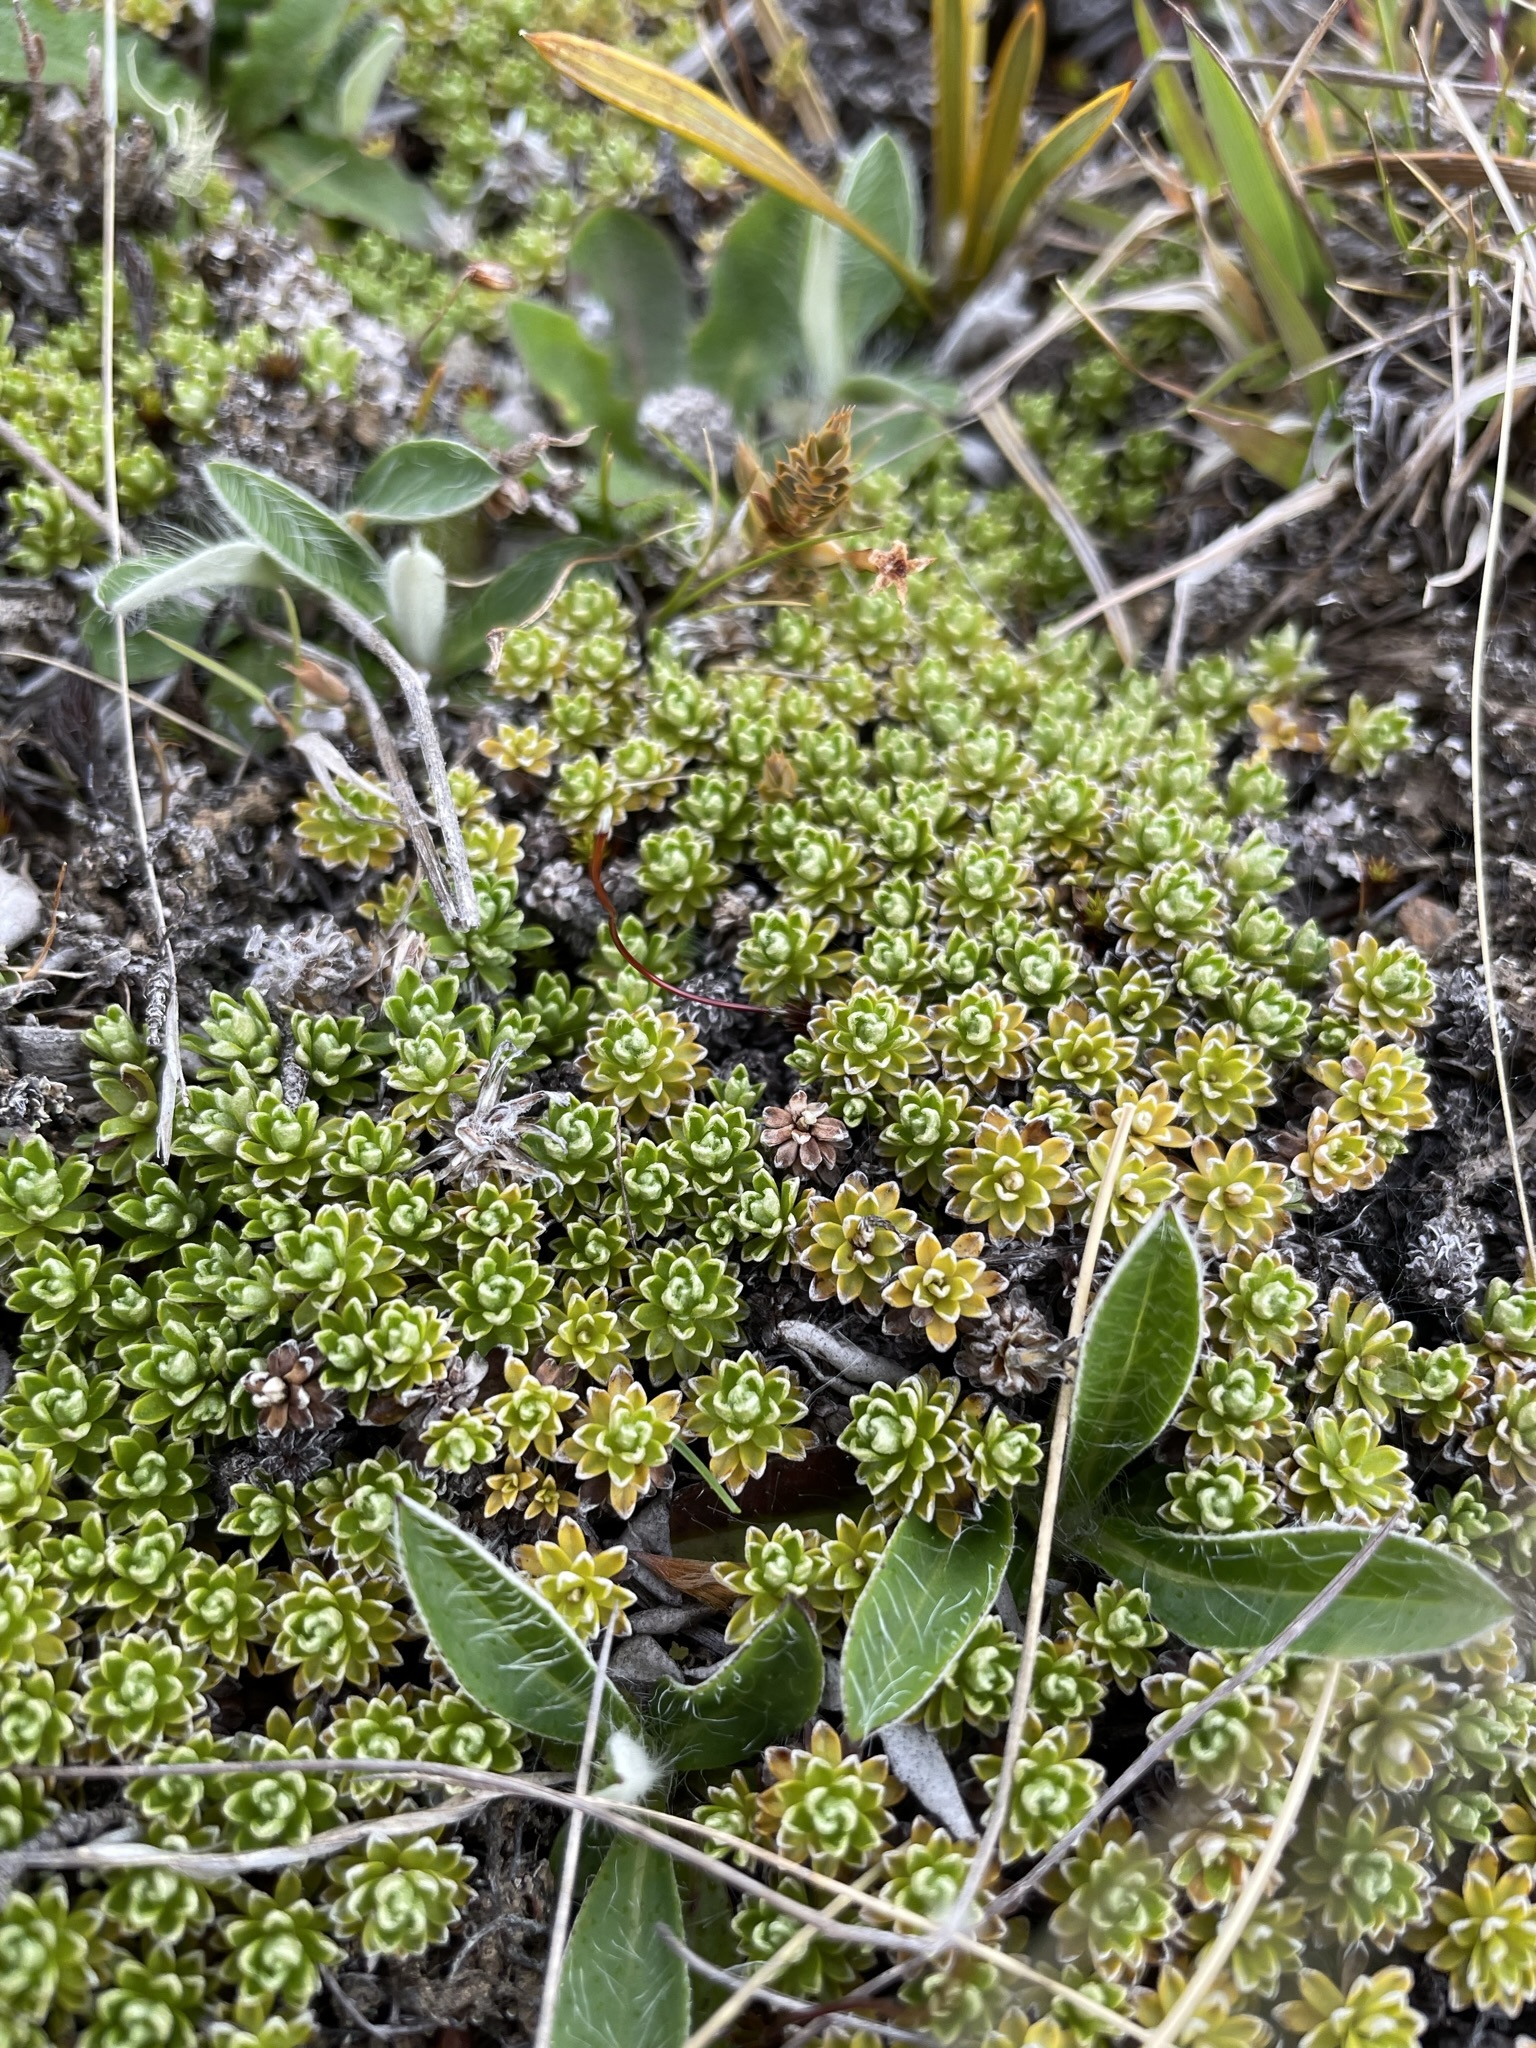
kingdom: Plantae
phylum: Tracheophyta
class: Magnoliopsida
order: Asterales
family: Asteraceae
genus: Raoulia
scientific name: Raoulia subsericea
